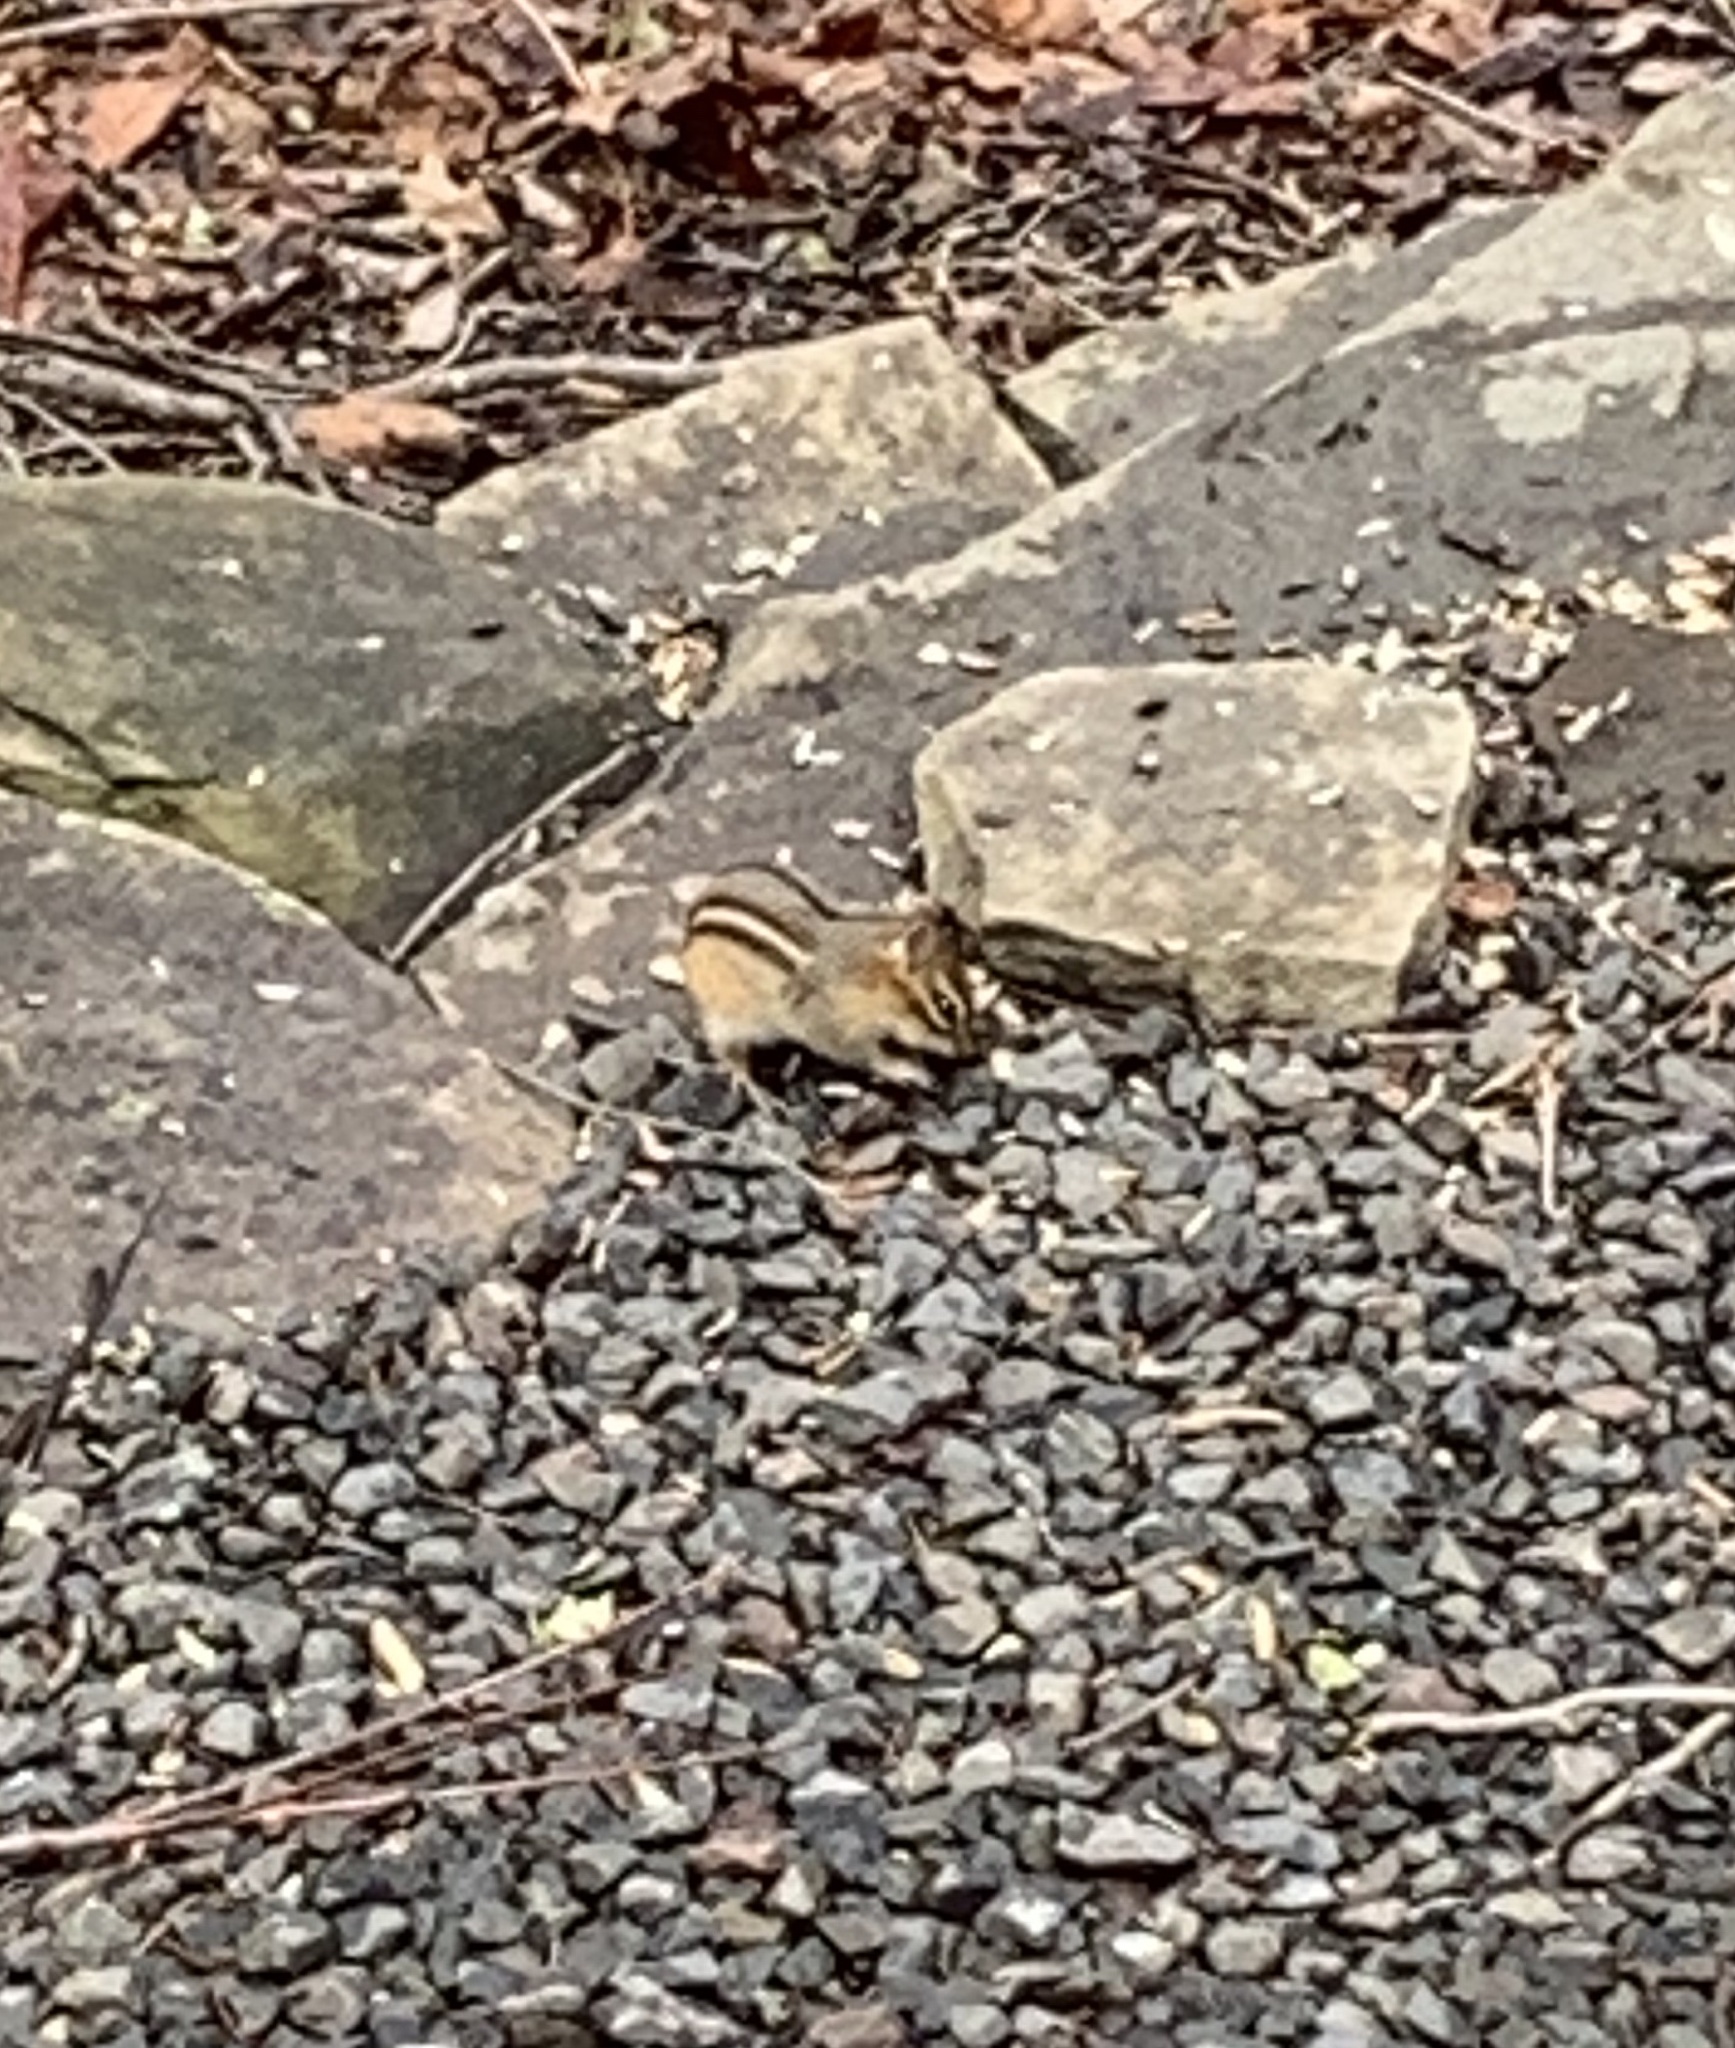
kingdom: Animalia
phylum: Chordata
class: Mammalia
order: Rodentia
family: Sciuridae
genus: Tamias
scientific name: Tamias striatus
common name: Eastern chipmunk
